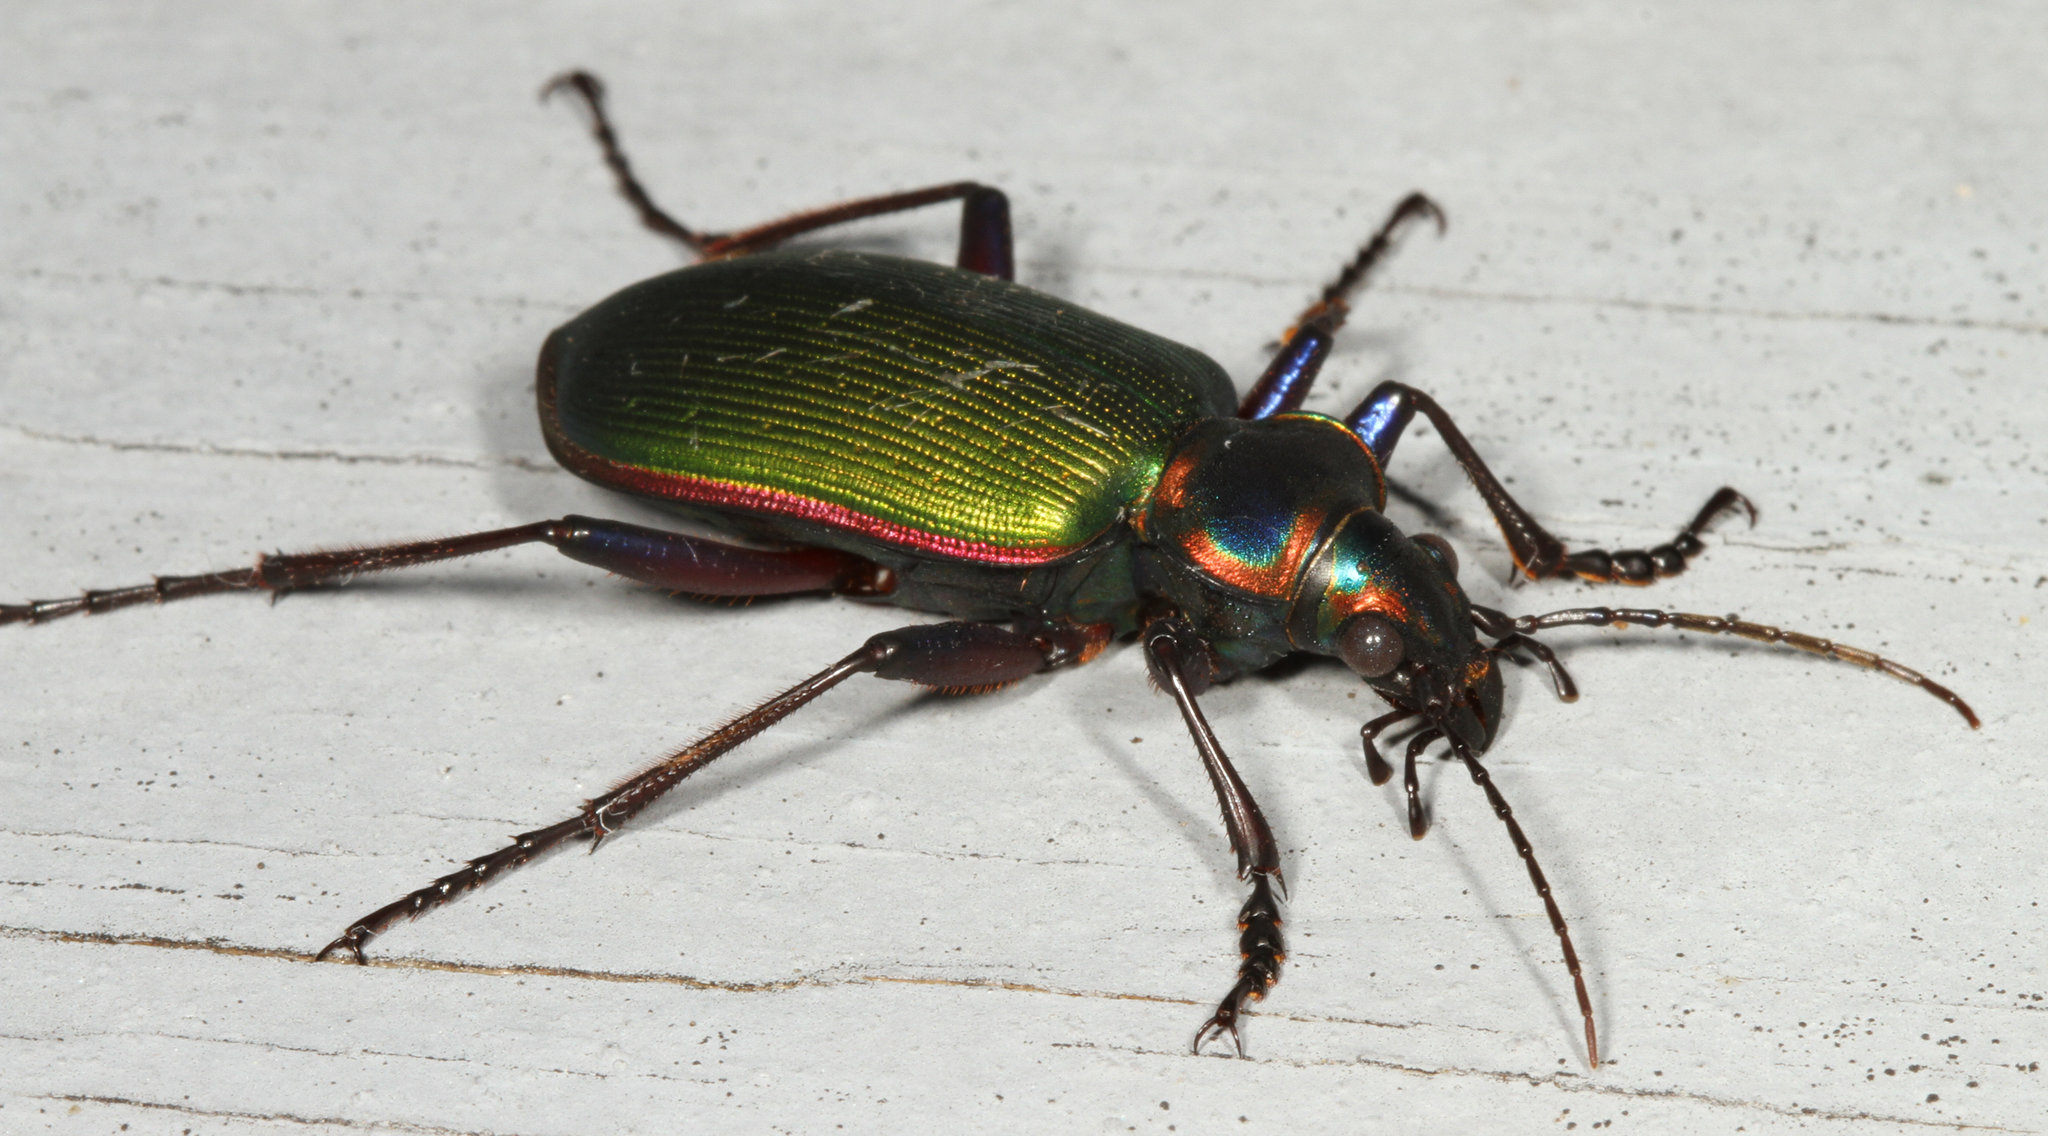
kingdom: Animalia
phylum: Arthropoda
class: Insecta
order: Coleoptera
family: Carabidae
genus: Calosoma
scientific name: Calosoma scrutator
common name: Fiery searcher beetle
